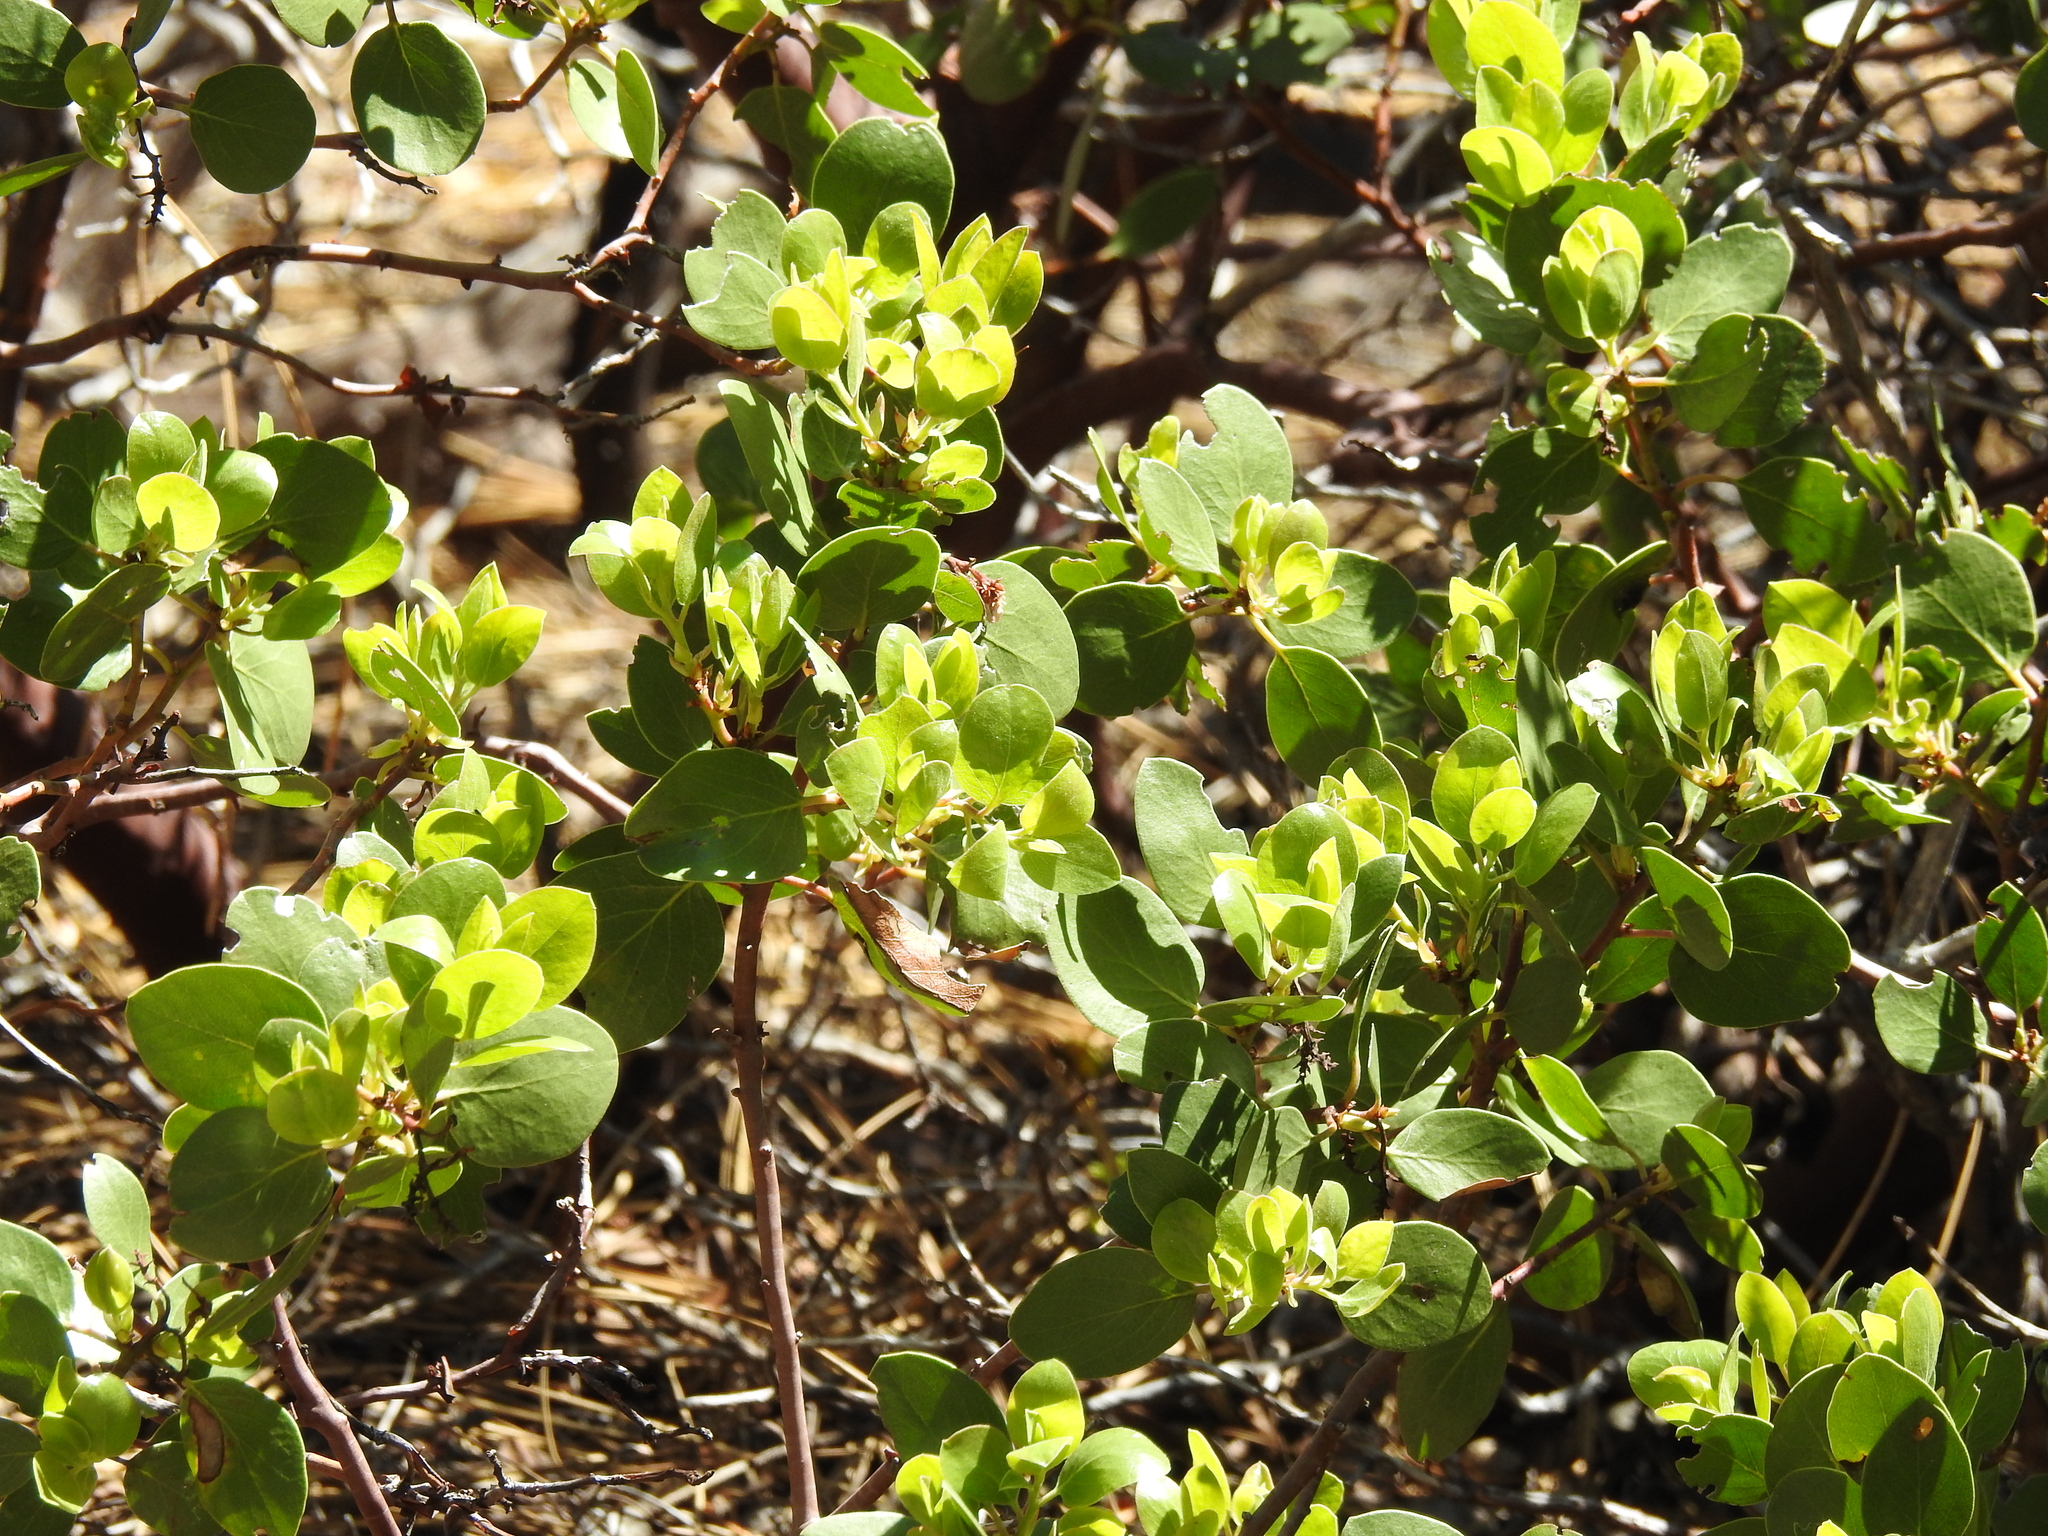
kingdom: Plantae
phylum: Tracheophyta
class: Magnoliopsida
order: Ericales
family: Ericaceae
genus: Arctostaphylos
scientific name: Arctostaphylos patula
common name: Green-leaf manzanita
